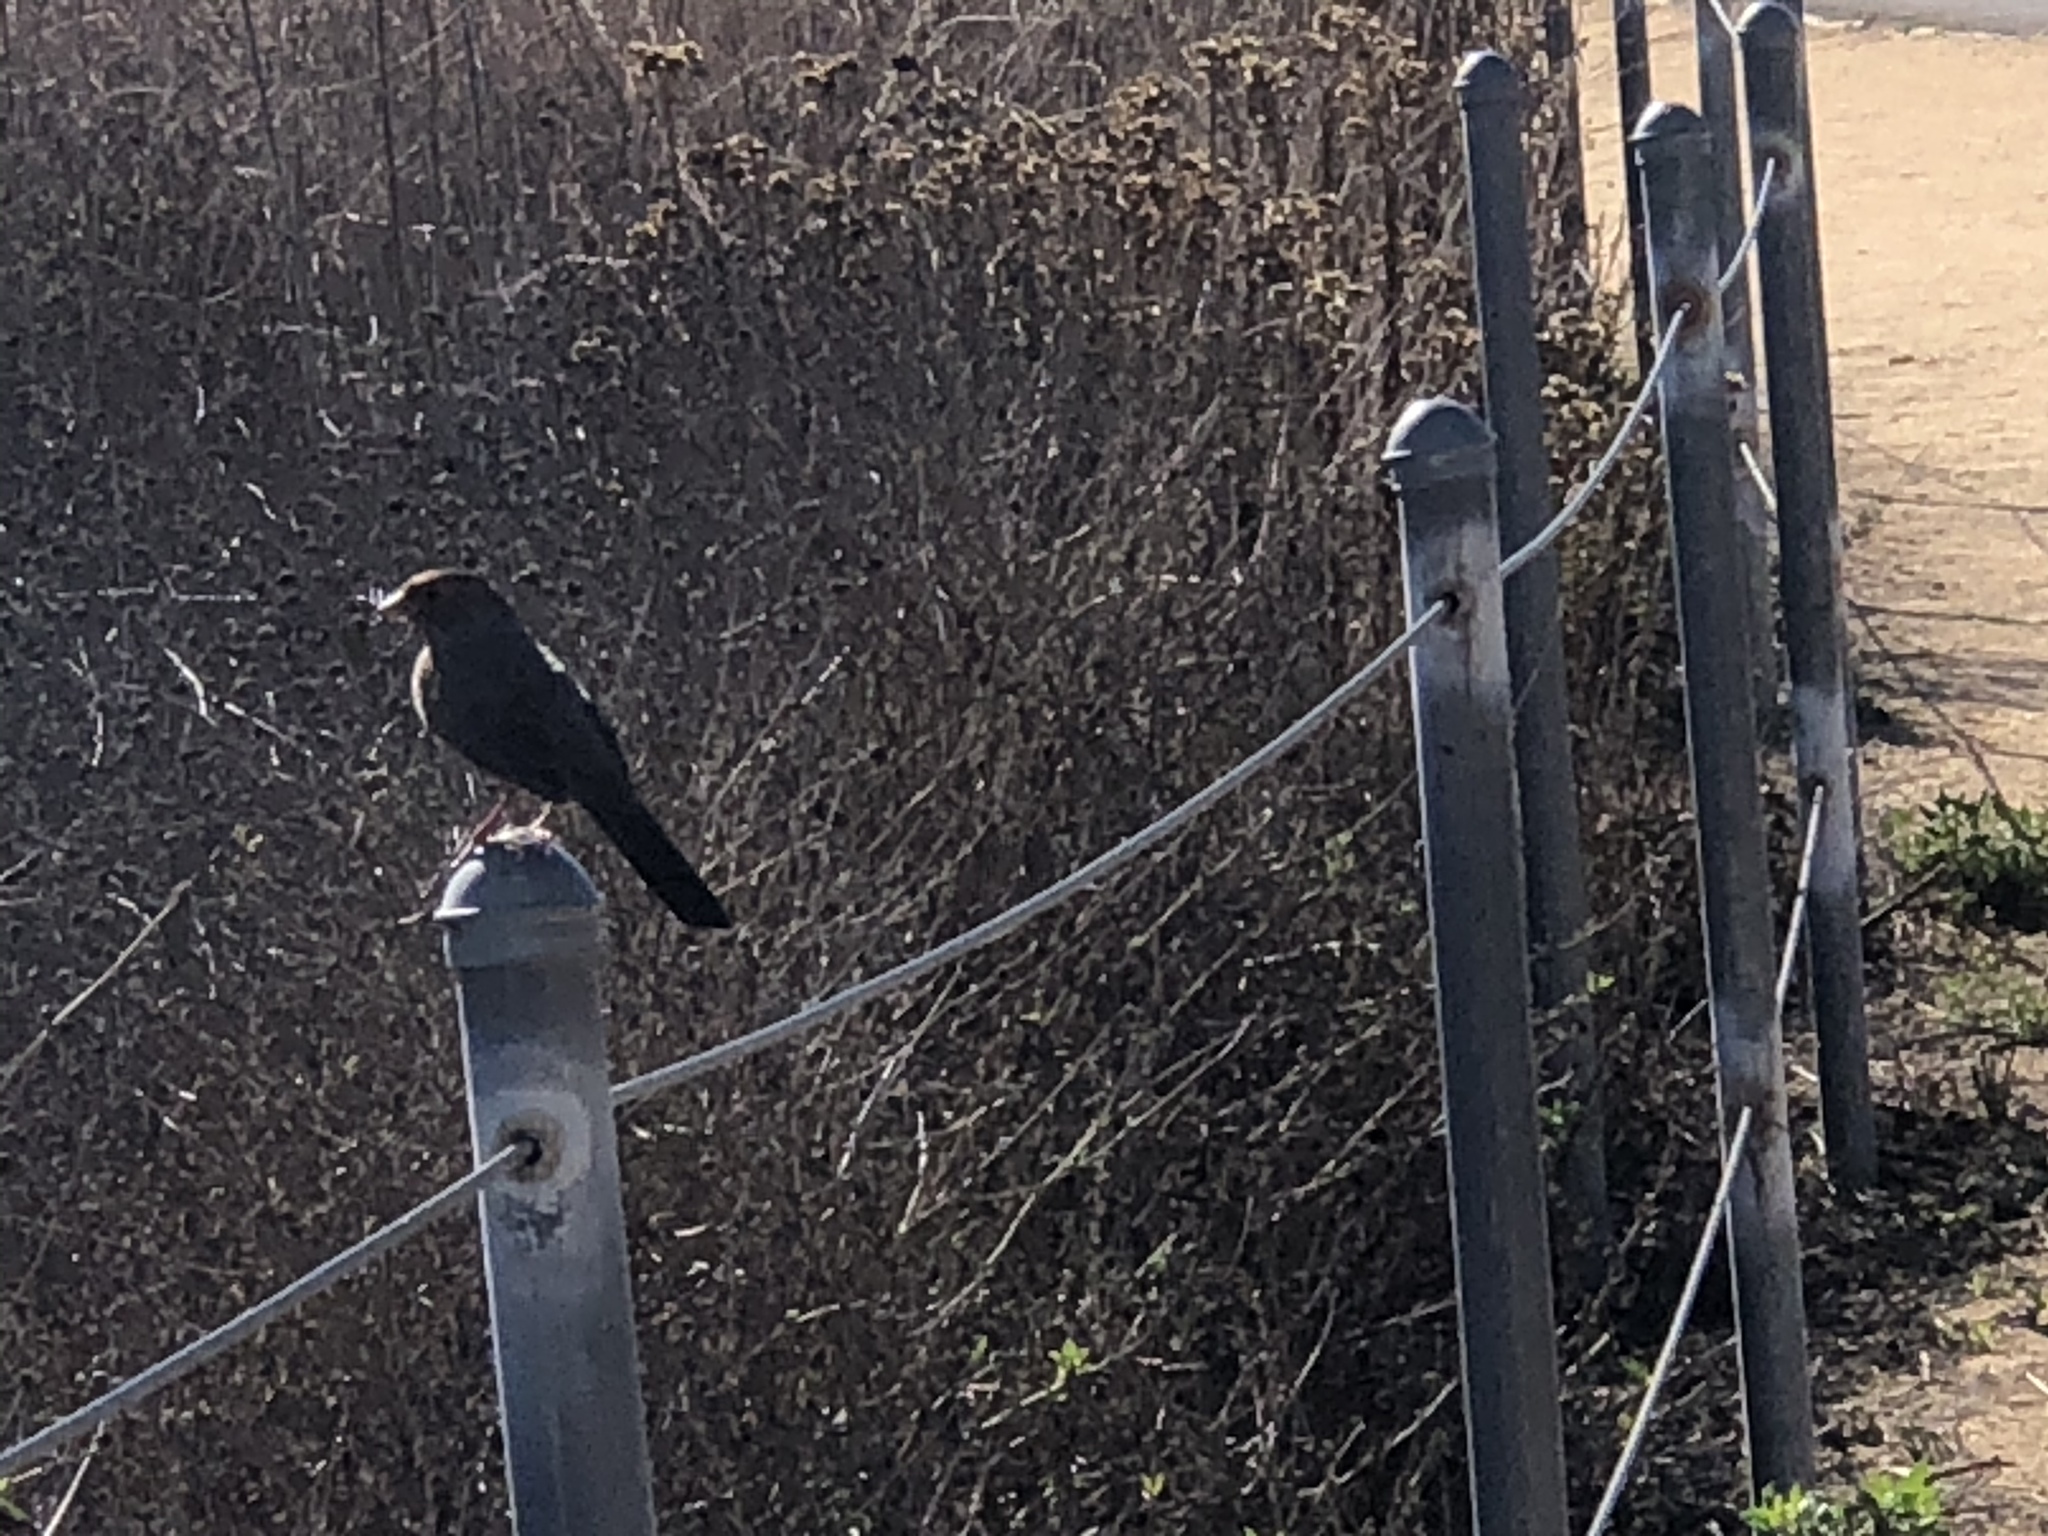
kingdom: Animalia
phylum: Chordata
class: Aves
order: Passeriformes
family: Passerellidae
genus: Melozone
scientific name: Melozone crissalis
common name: California towhee
